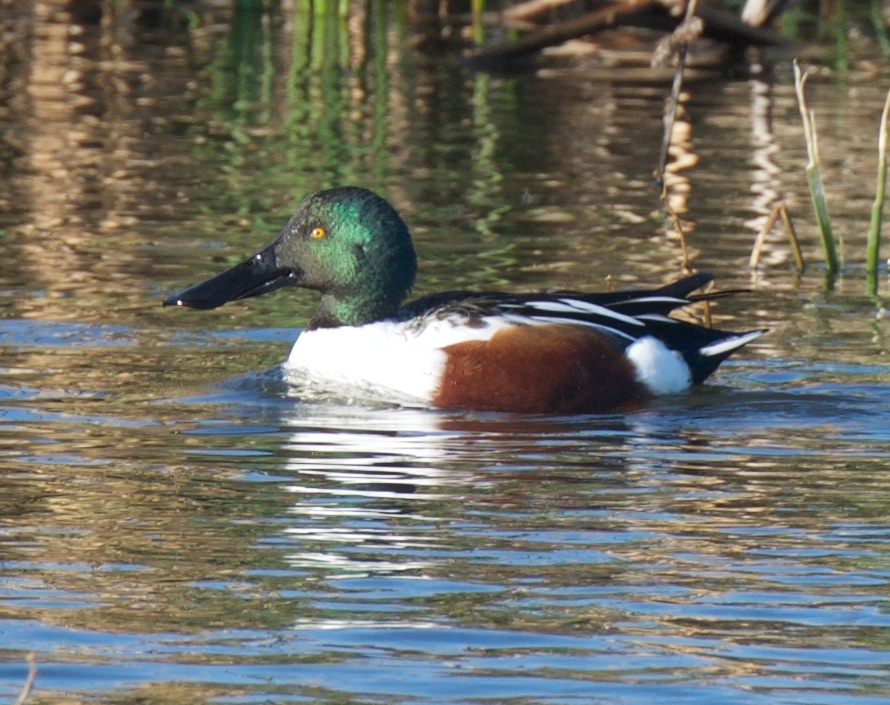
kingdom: Animalia
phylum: Chordata
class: Aves
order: Anseriformes
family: Anatidae
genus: Spatula
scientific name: Spatula clypeata
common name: Northern shoveler
